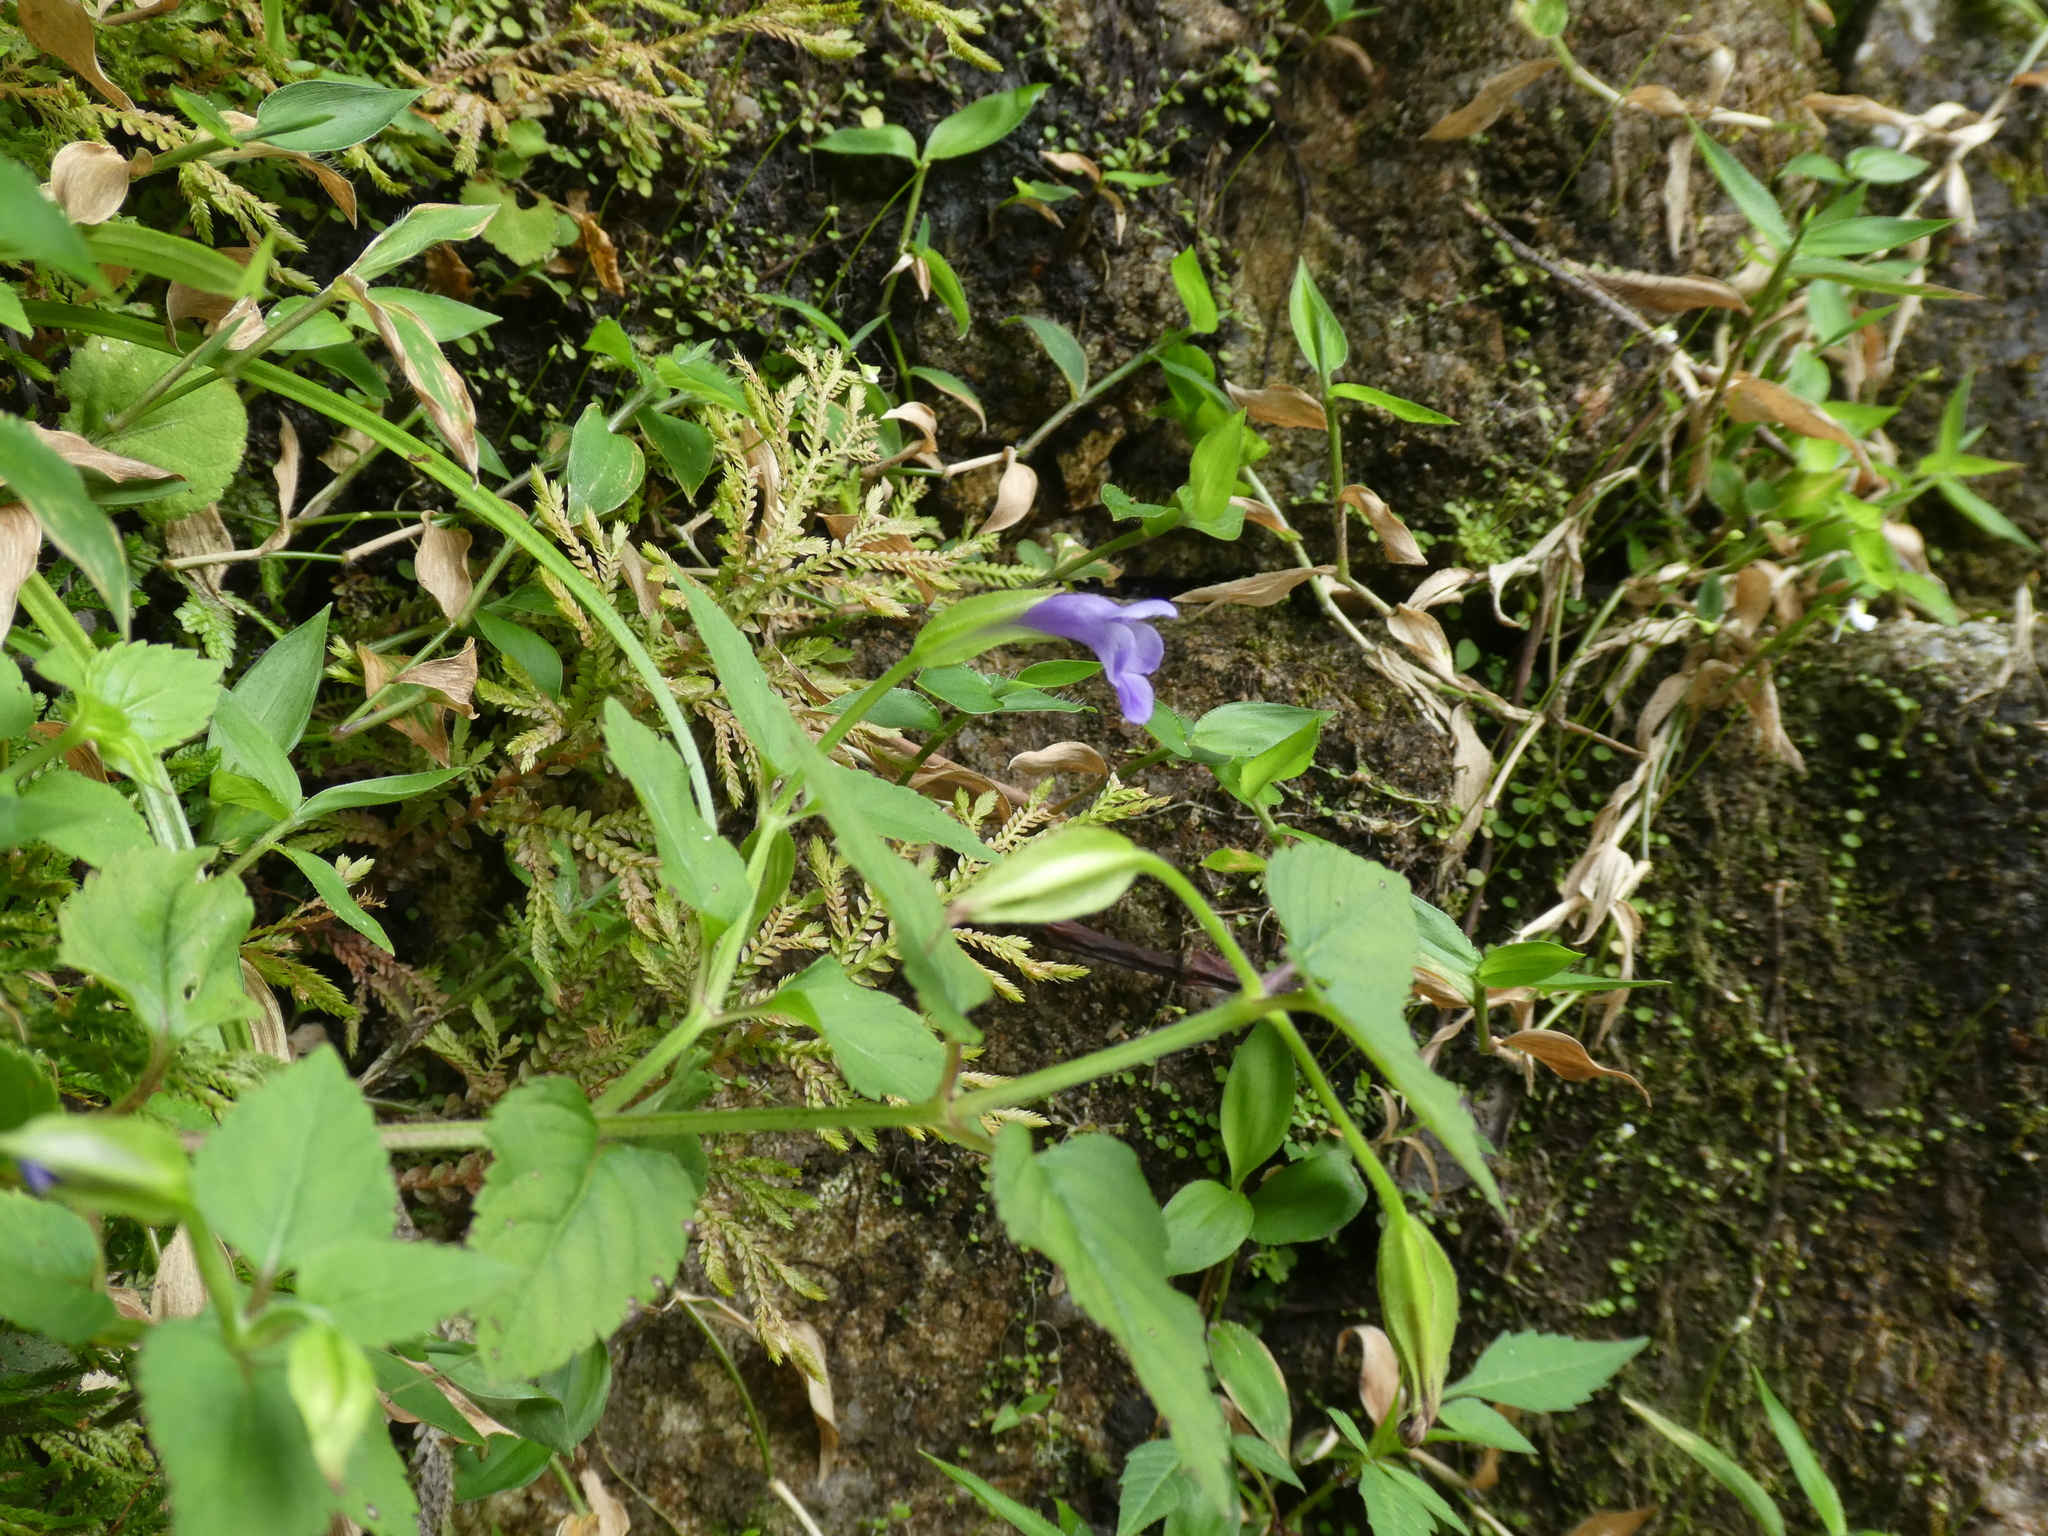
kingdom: Plantae
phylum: Tracheophyta
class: Magnoliopsida
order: Lamiales
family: Linderniaceae
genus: Torenia
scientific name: Torenia asiatica
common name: Wishbone flower
